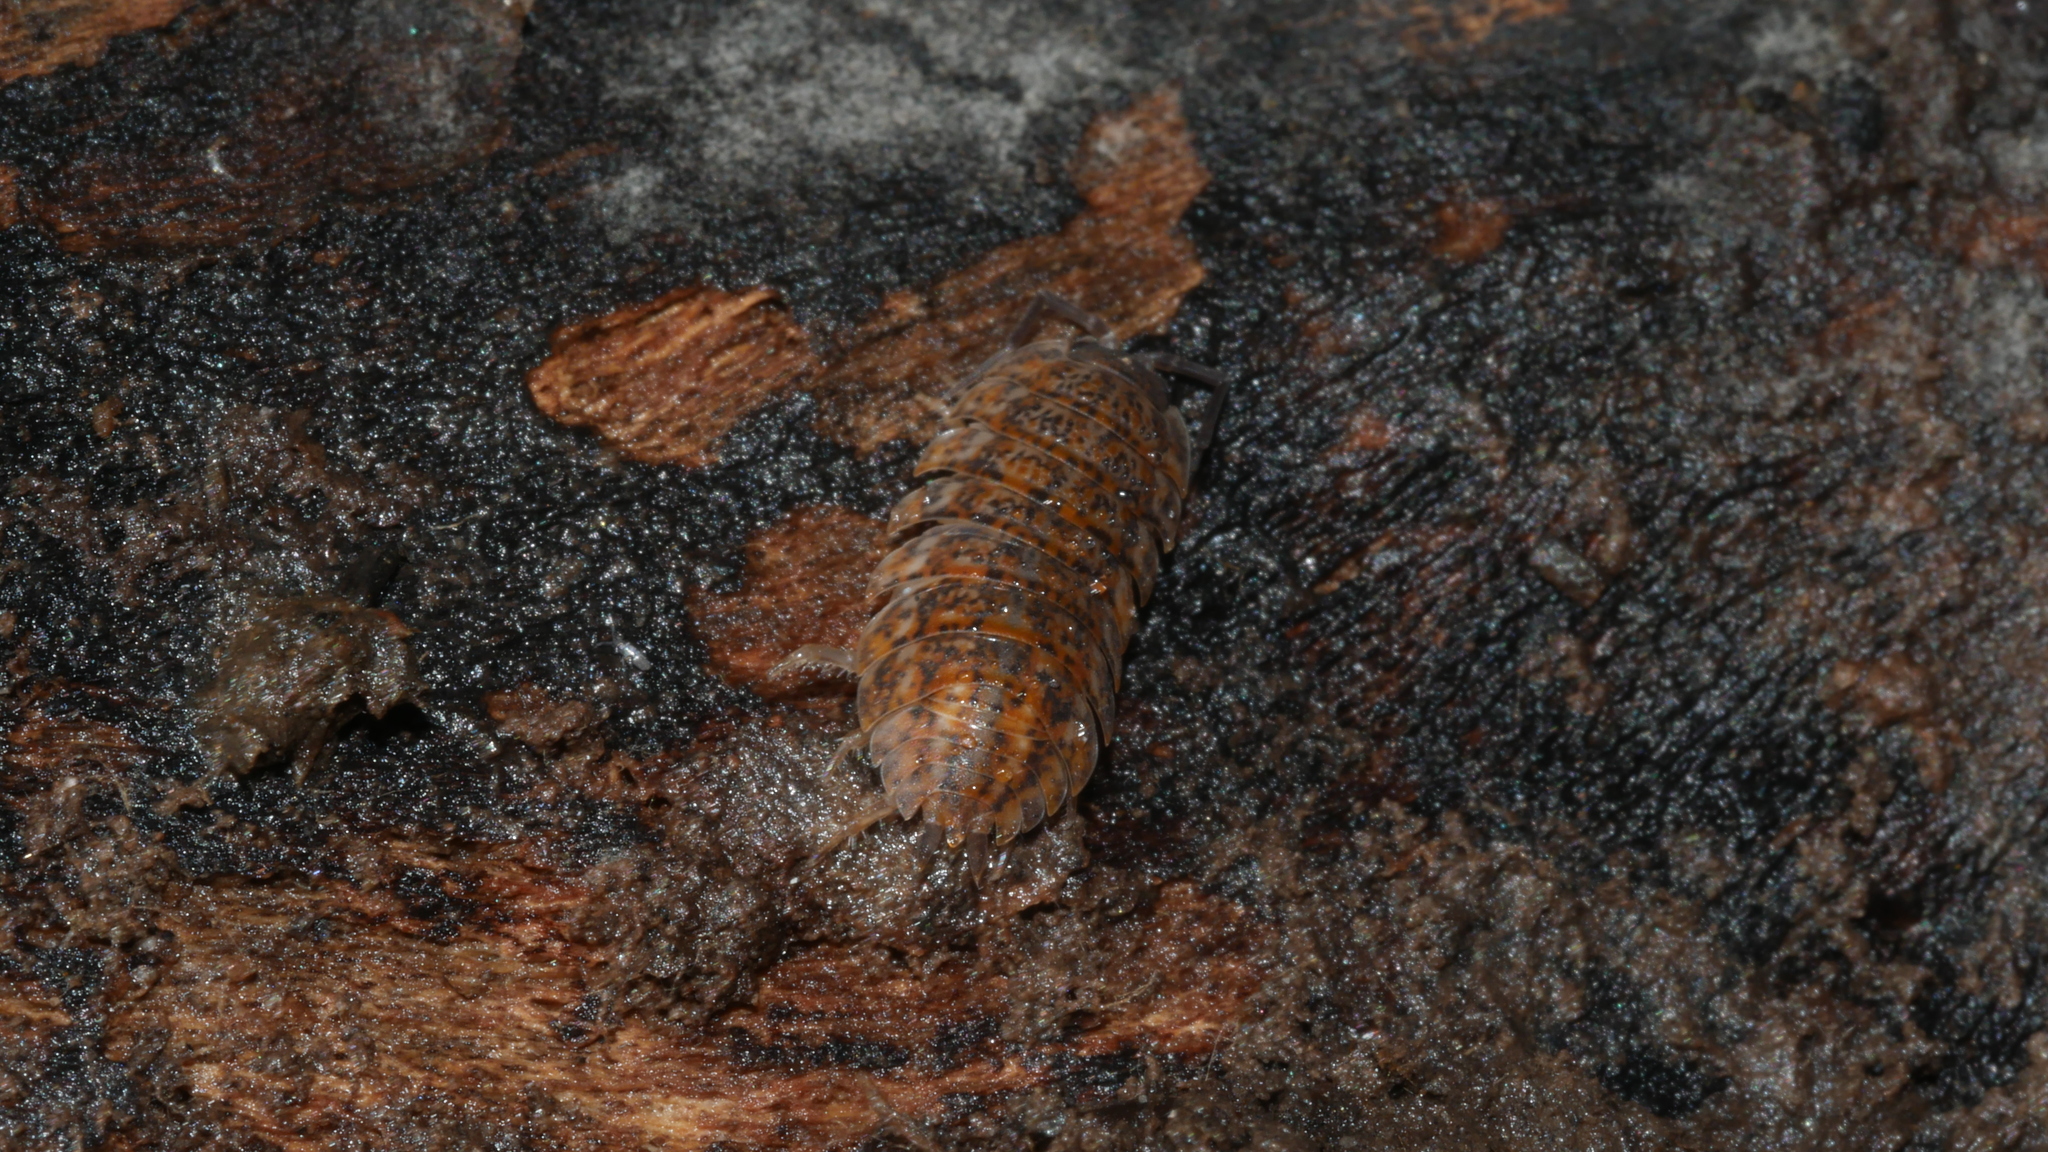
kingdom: Animalia
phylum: Arthropoda
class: Malacostraca
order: Isopoda
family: Trachelipodidae
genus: Trachelipus
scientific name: Trachelipus rathkii
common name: Isopod
